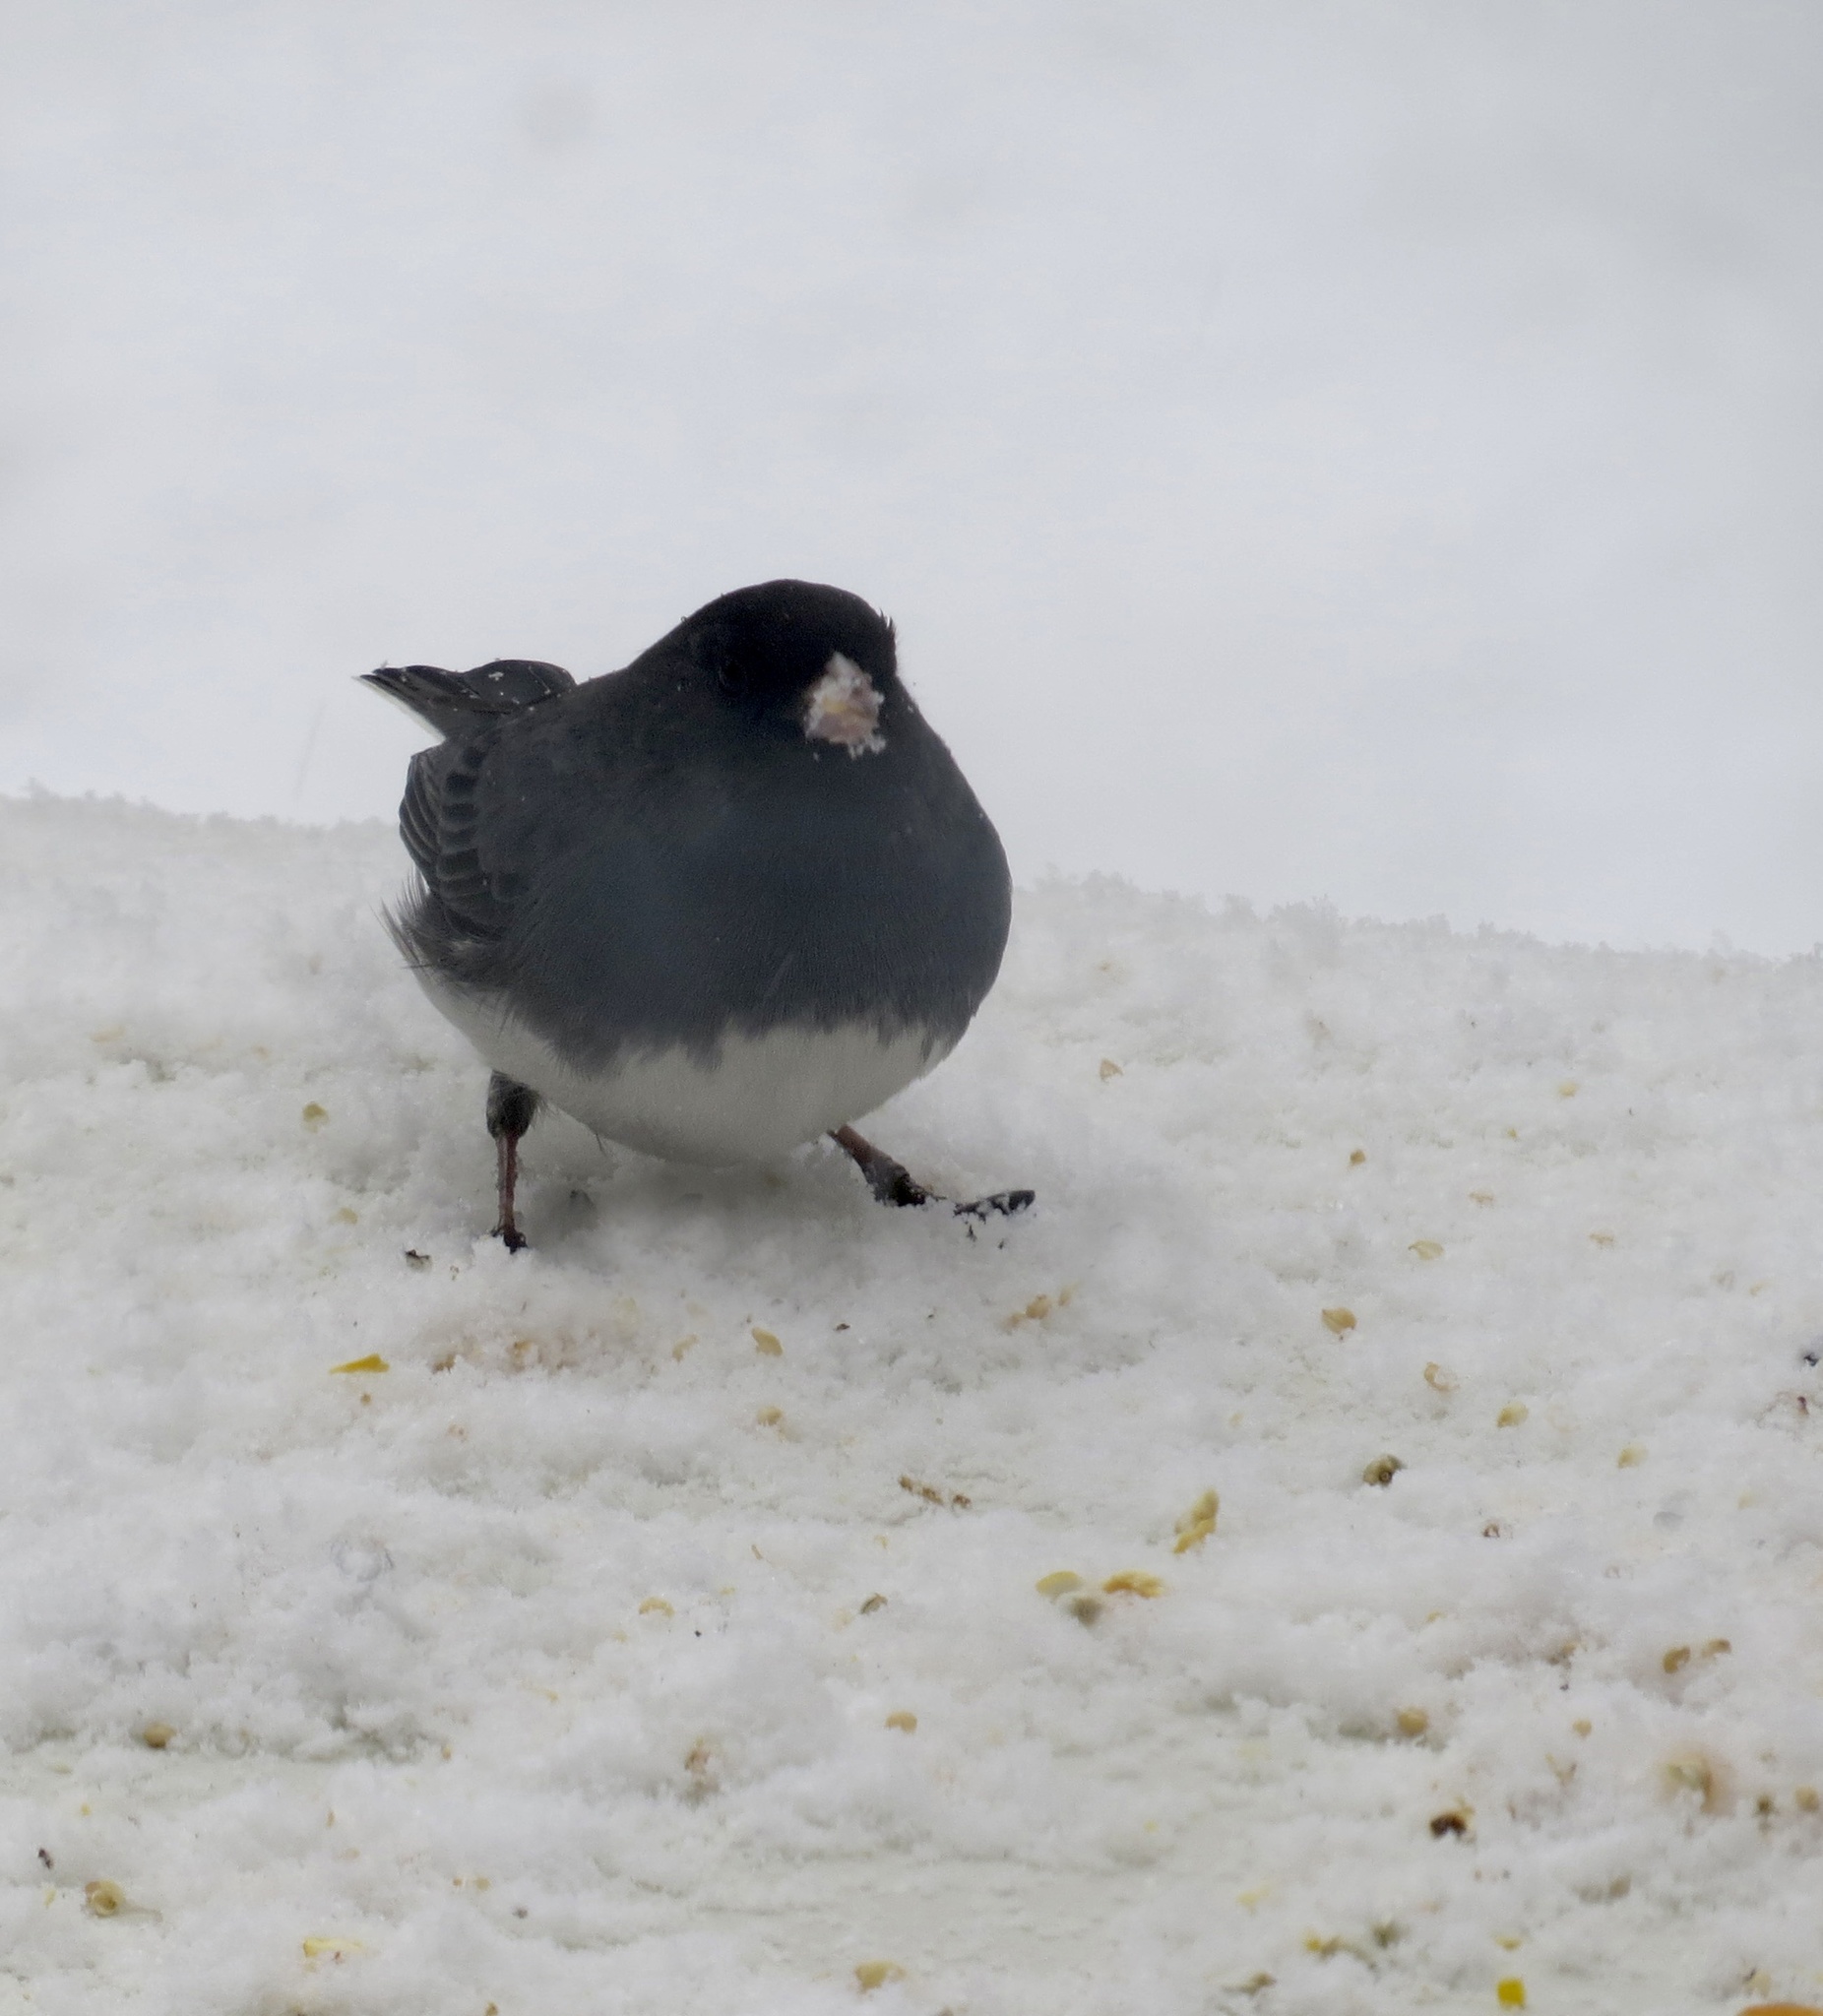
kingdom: Animalia
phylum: Chordata
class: Aves
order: Passeriformes
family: Passerellidae
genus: Junco
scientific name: Junco hyemalis
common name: Dark-eyed junco
